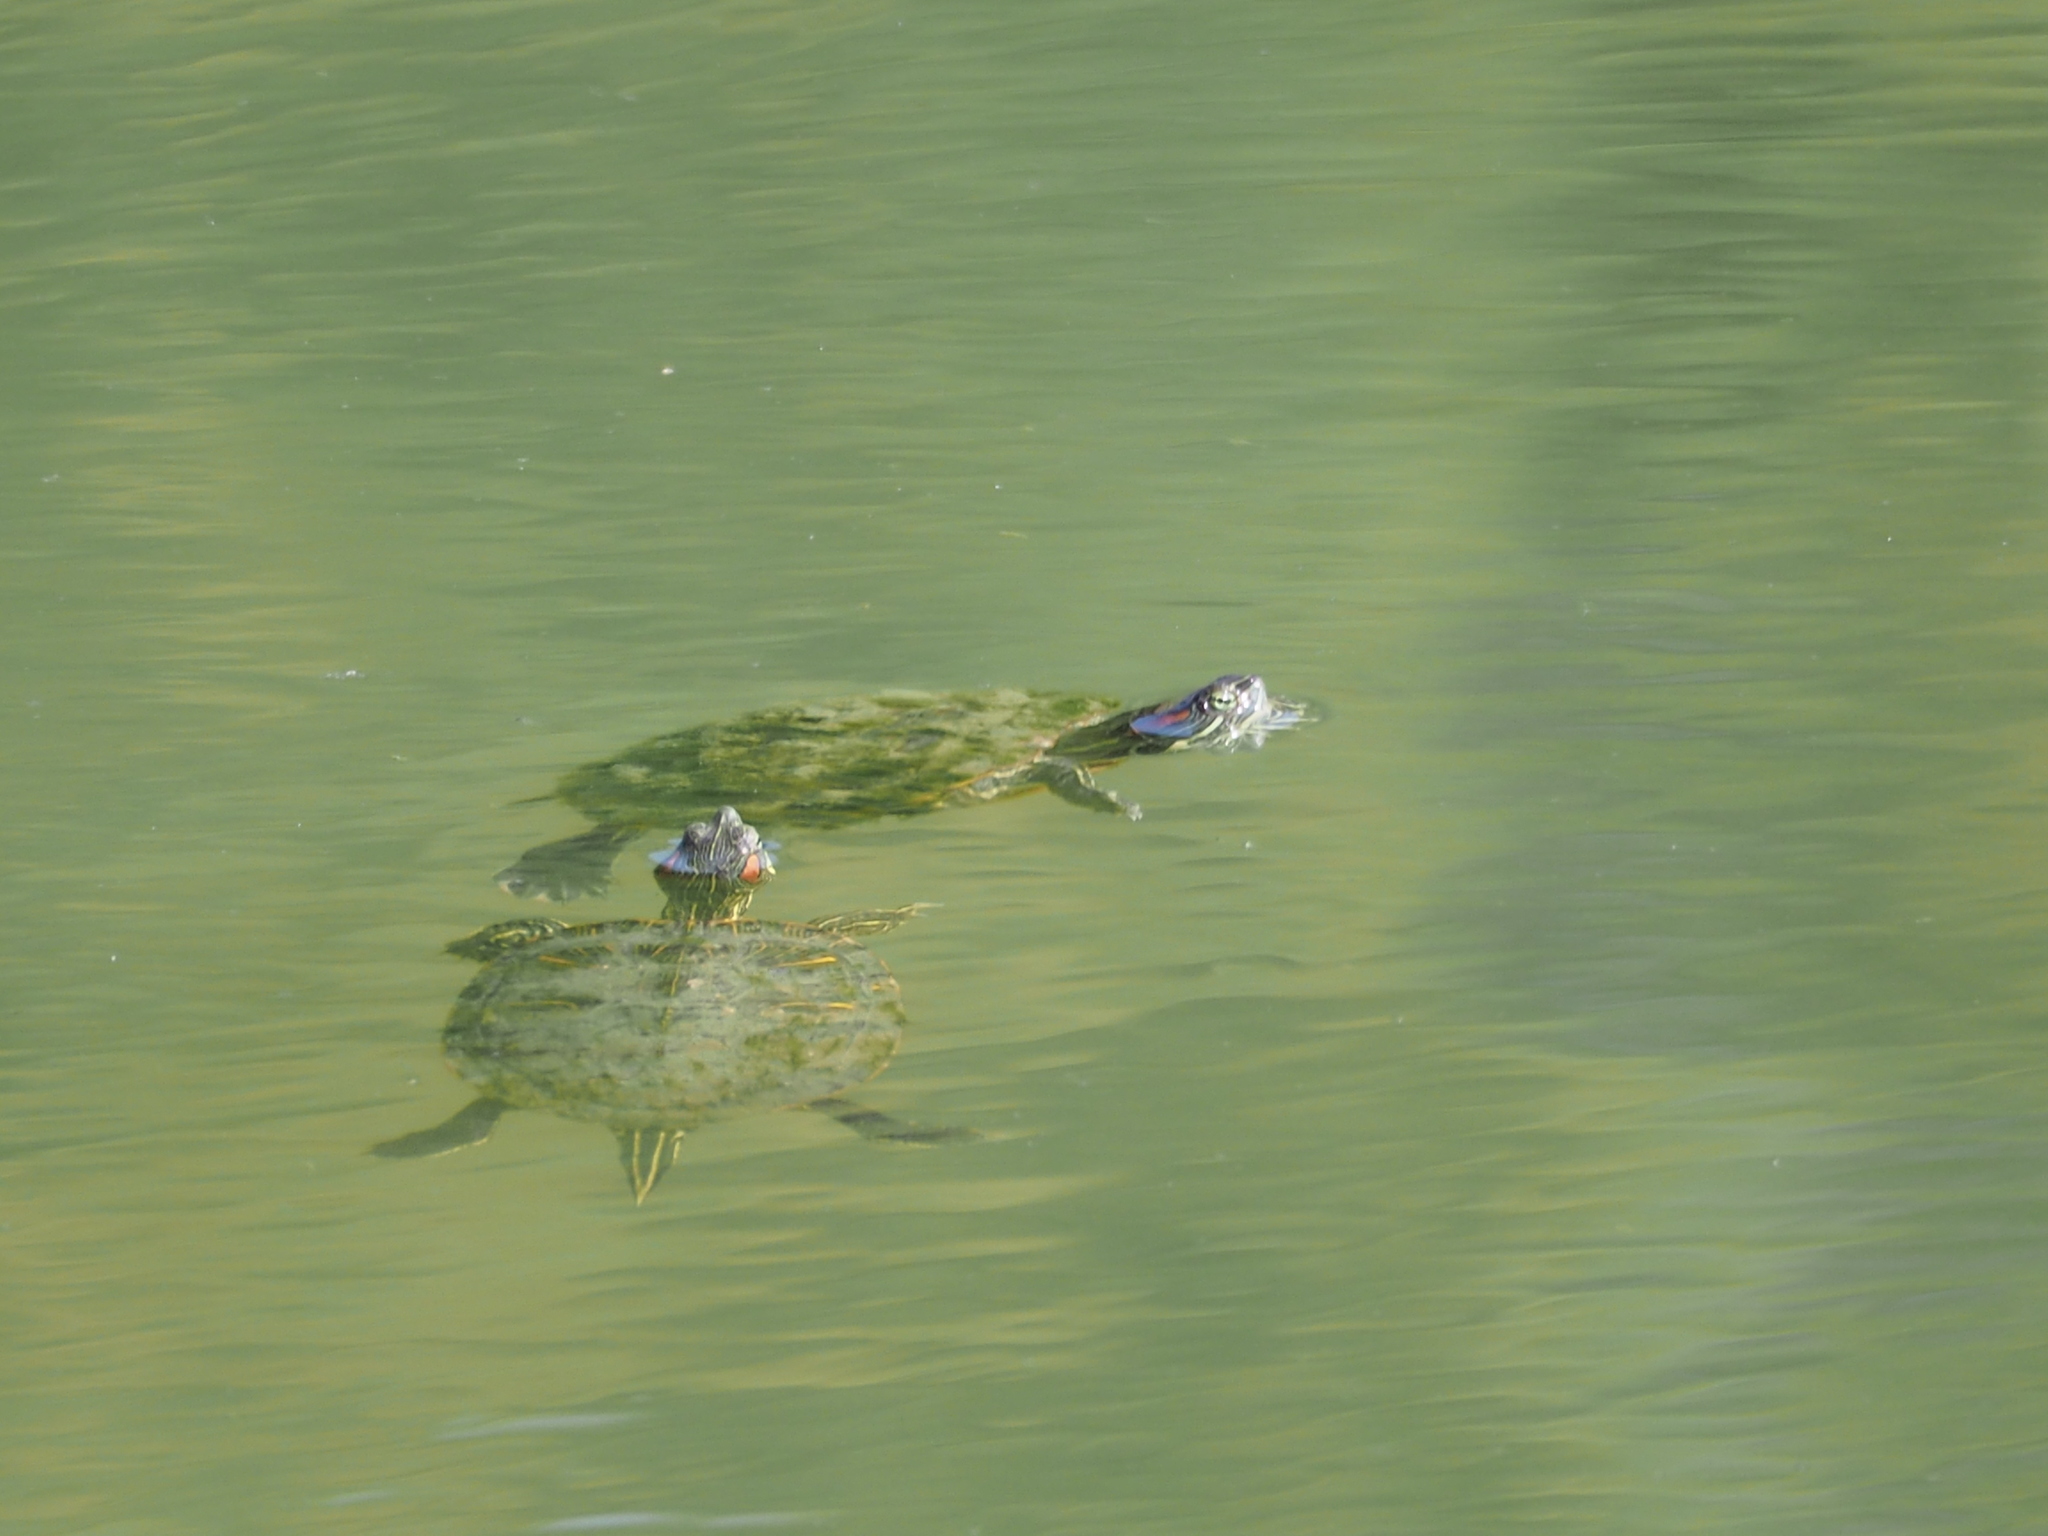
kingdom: Animalia
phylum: Chordata
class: Testudines
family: Emydidae
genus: Trachemys
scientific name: Trachemys scripta
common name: Slider
